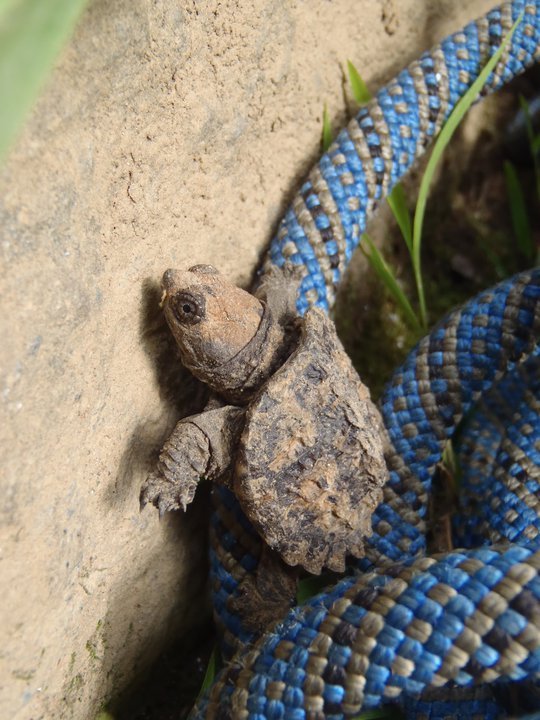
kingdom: Animalia
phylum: Chordata
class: Testudines
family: Chelydridae
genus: Chelydra
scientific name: Chelydra serpentina
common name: Common snapping turtle
